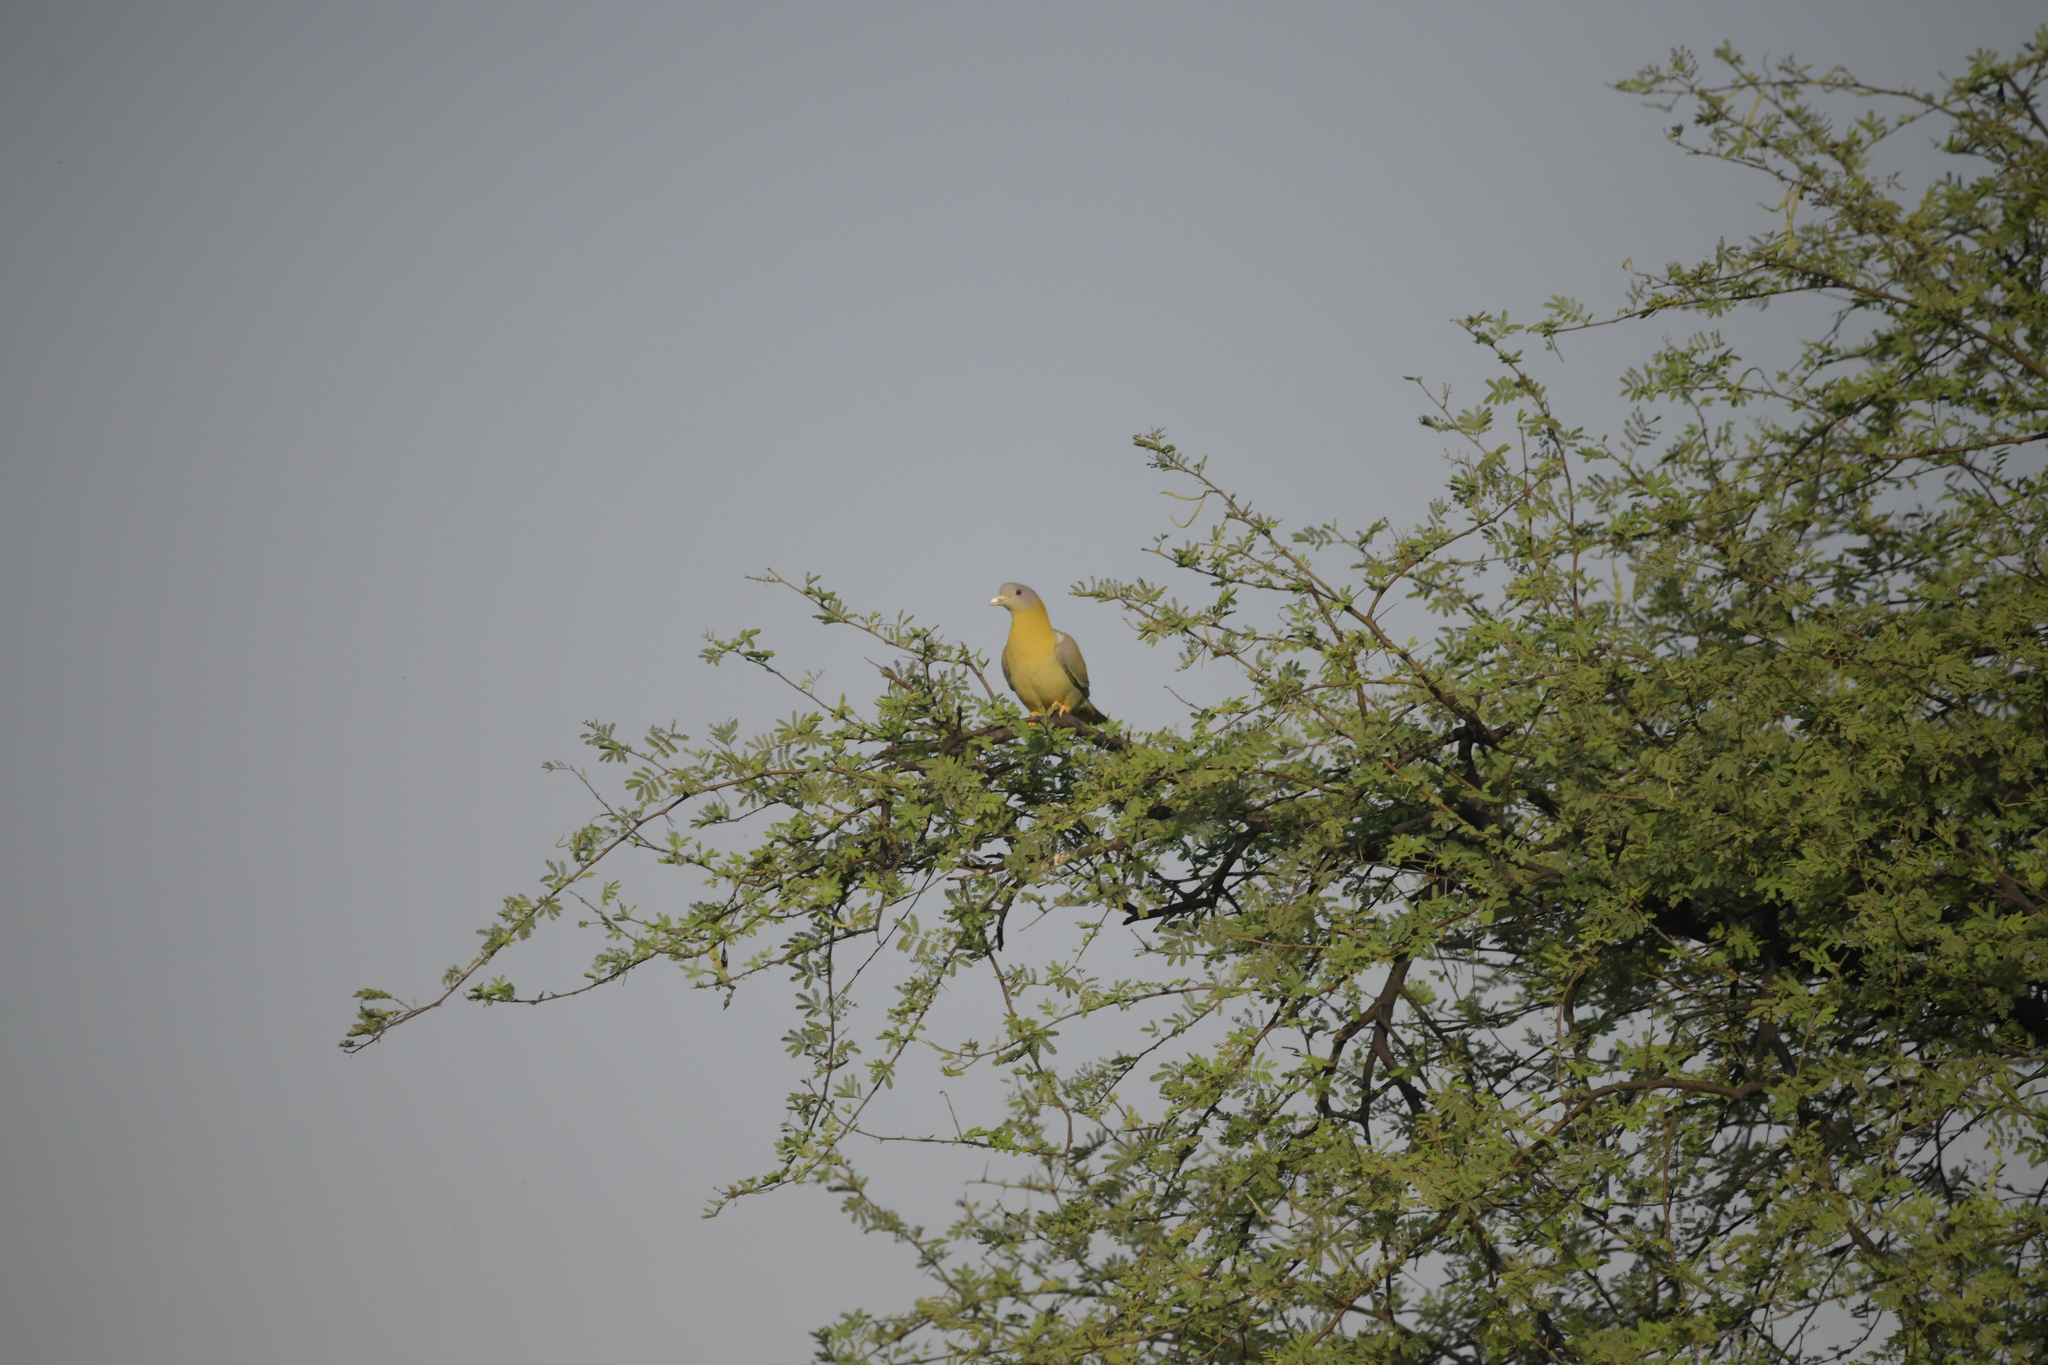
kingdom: Animalia
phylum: Chordata
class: Aves
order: Columbiformes
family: Columbidae
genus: Treron
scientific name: Treron phoenicopterus
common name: Yellow-footed green pigeon
